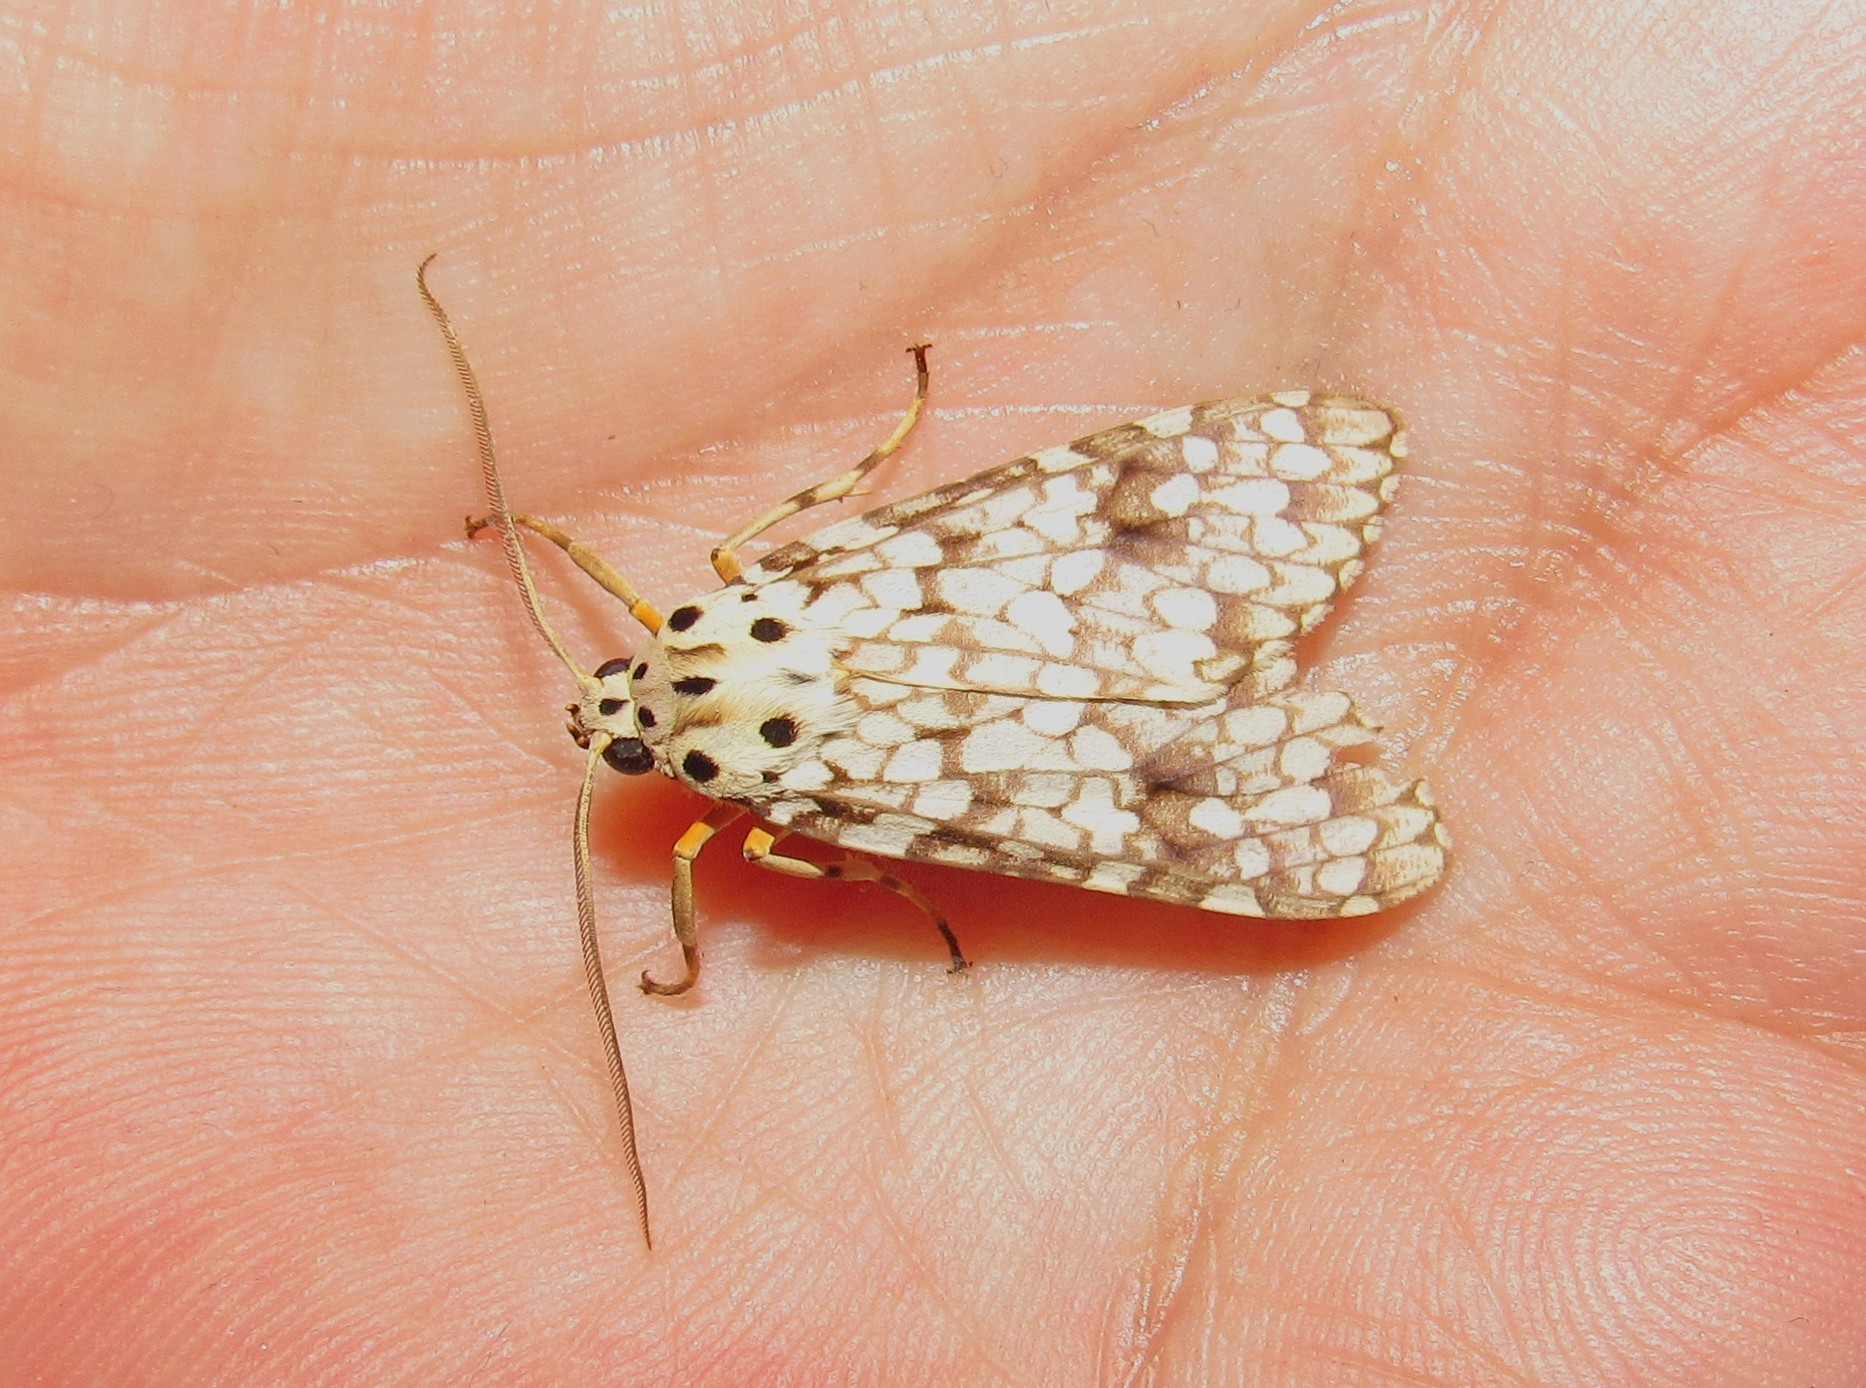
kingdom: Animalia
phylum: Arthropoda
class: Insecta
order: Lepidoptera
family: Erebidae
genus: Carales
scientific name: Carales astur
